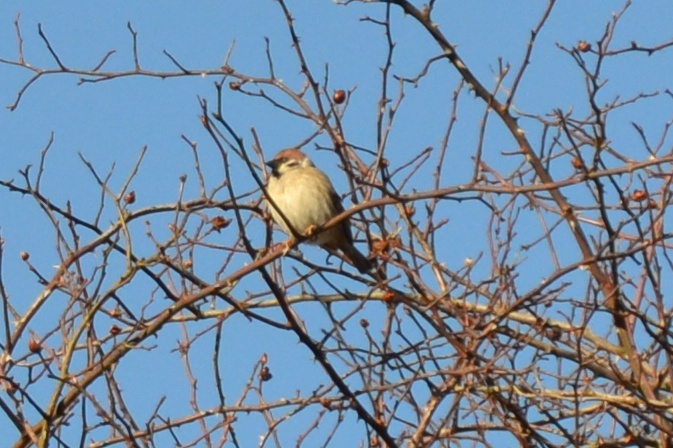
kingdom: Animalia
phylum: Chordata
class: Aves
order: Passeriformes
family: Passeridae
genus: Passer
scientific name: Passer montanus
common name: Eurasian tree sparrow
